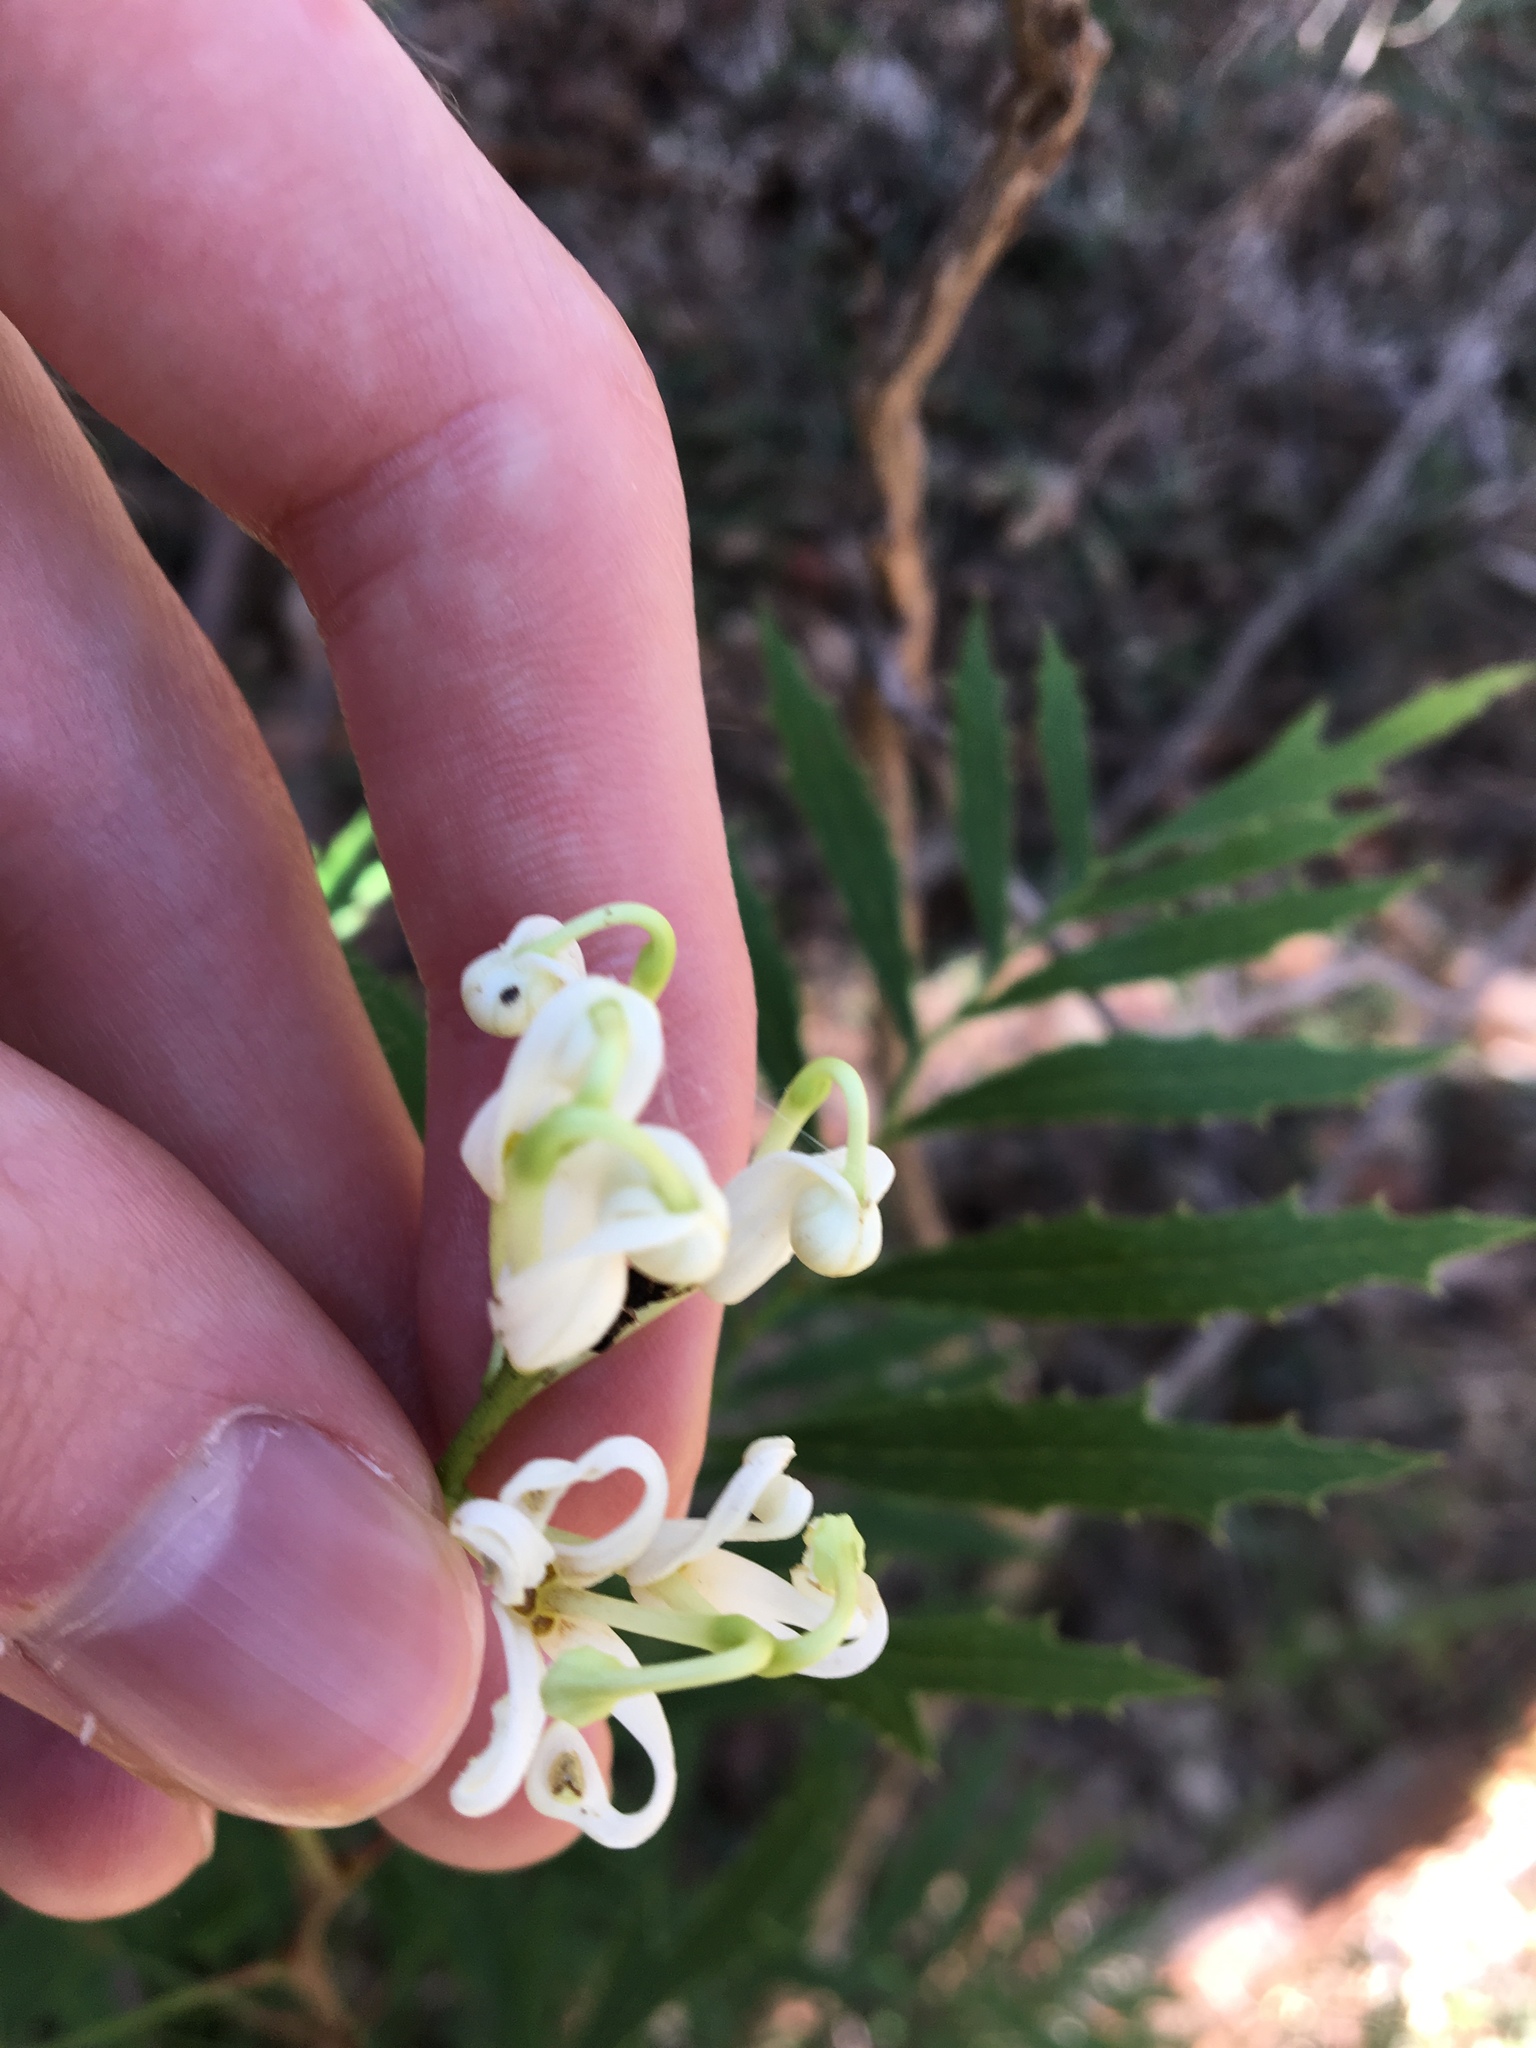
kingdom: Plantae
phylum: Tracheophyta
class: Magnoliopsida
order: Proteales
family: Proteaceae
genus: Lomatia
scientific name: Lomatia silaifolia
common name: Crinklebush
